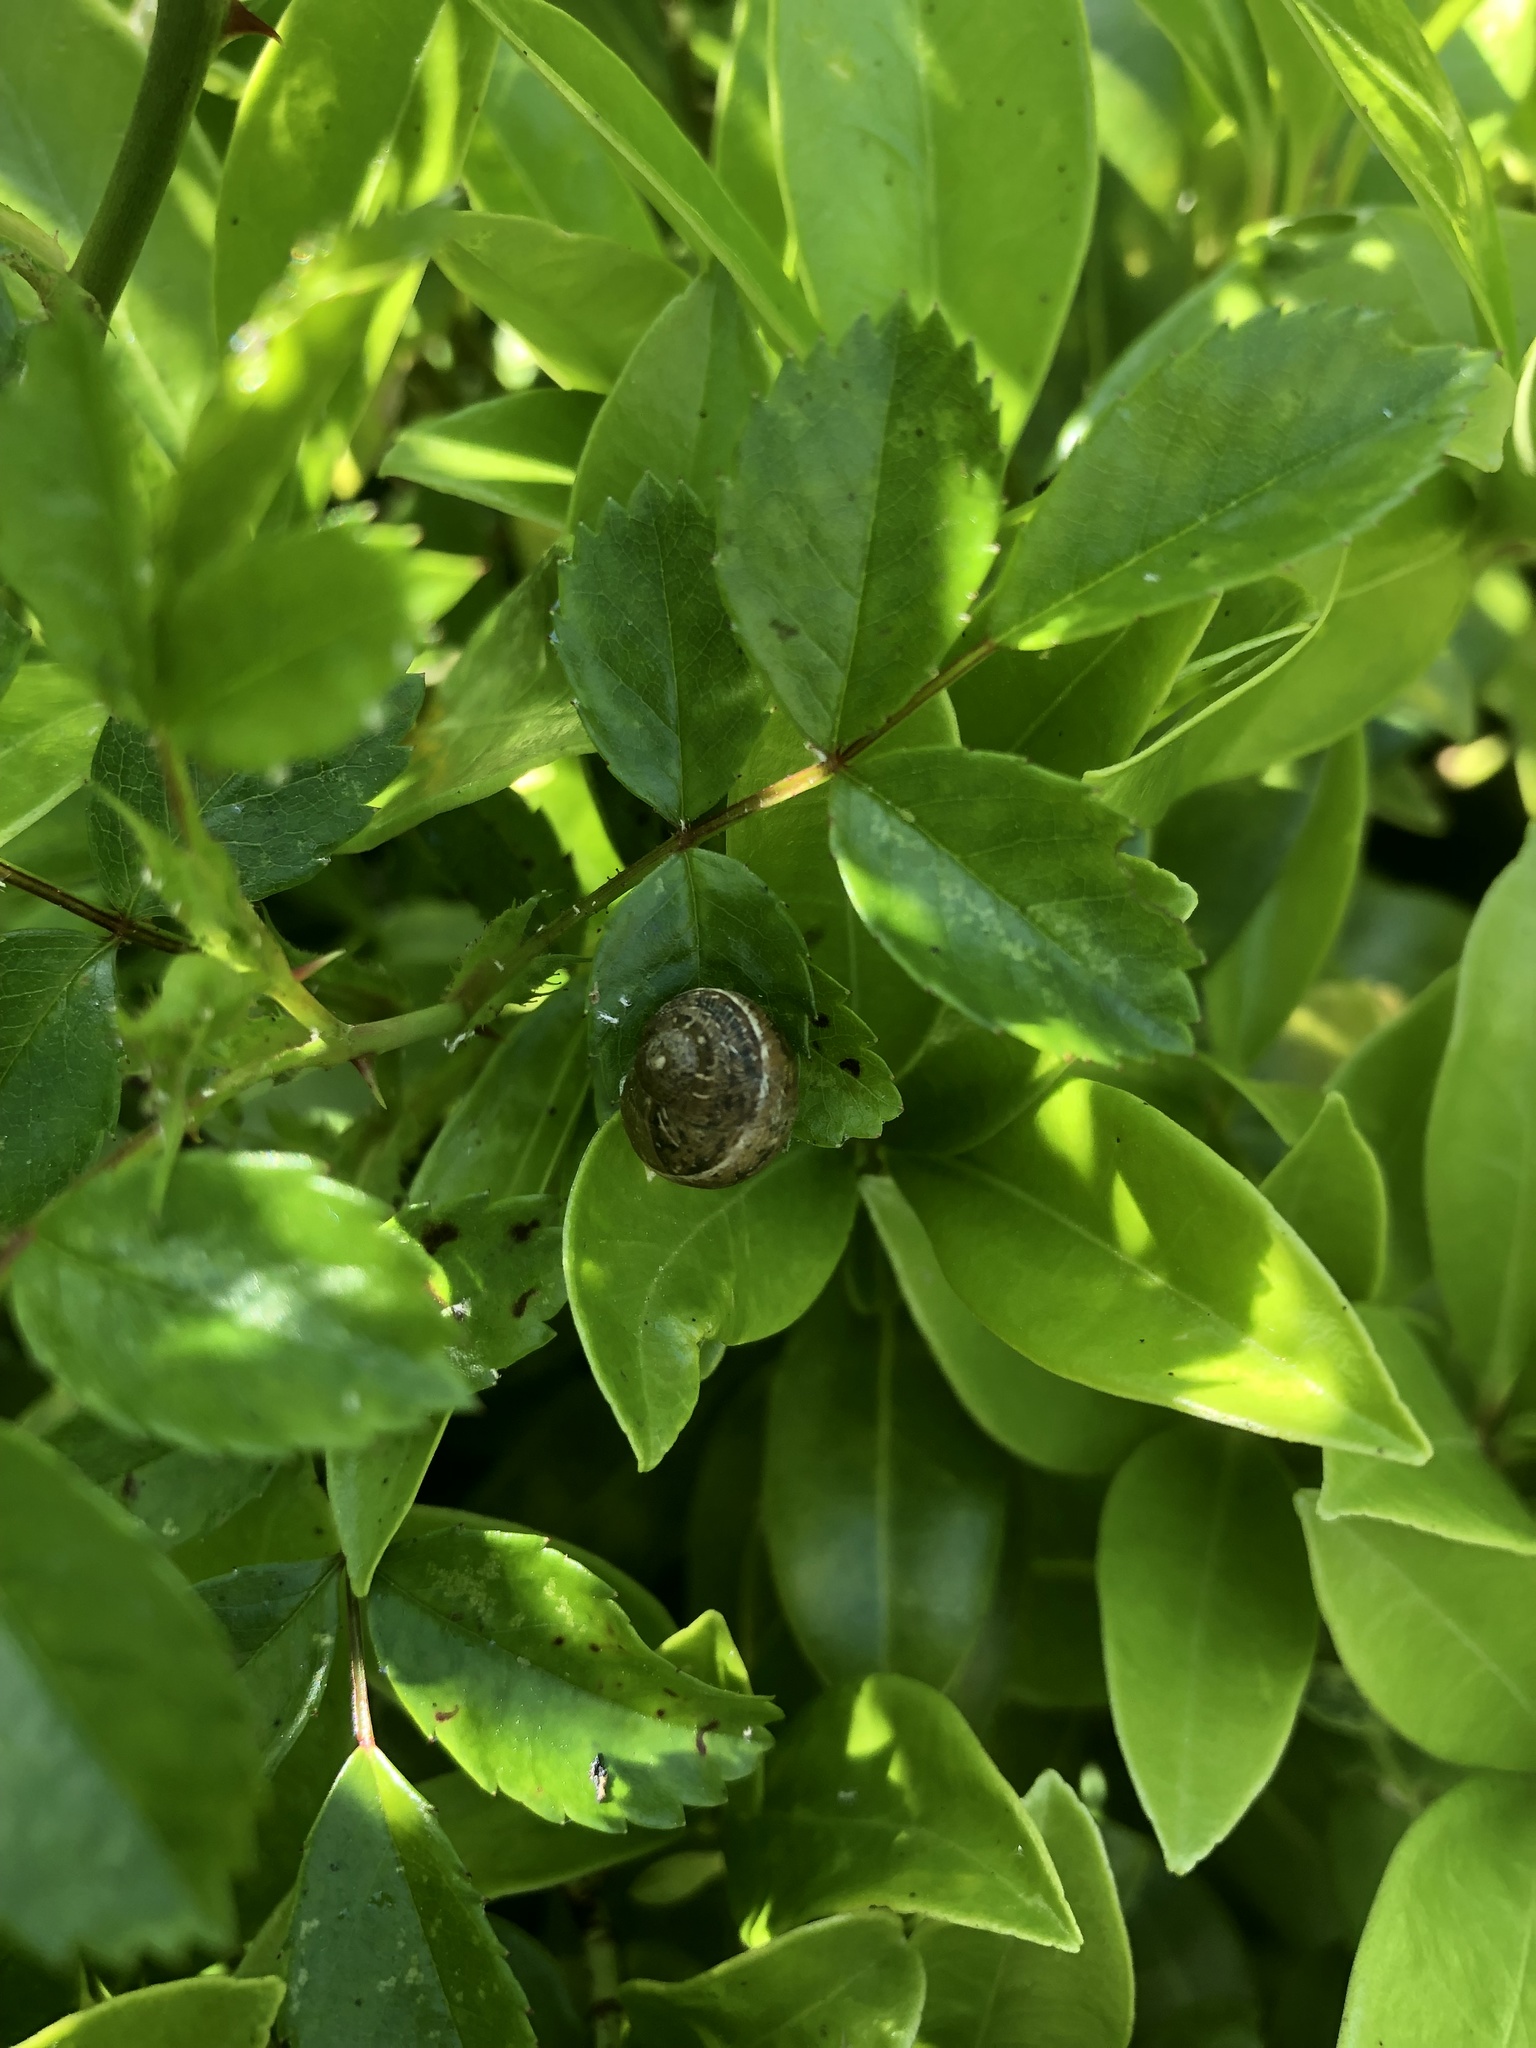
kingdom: Animalia
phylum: Mollusca
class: Gastropoda
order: Stylommatophora
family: Helicidae
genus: Cornu
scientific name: Cornu aspersum
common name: Brown garden snail
